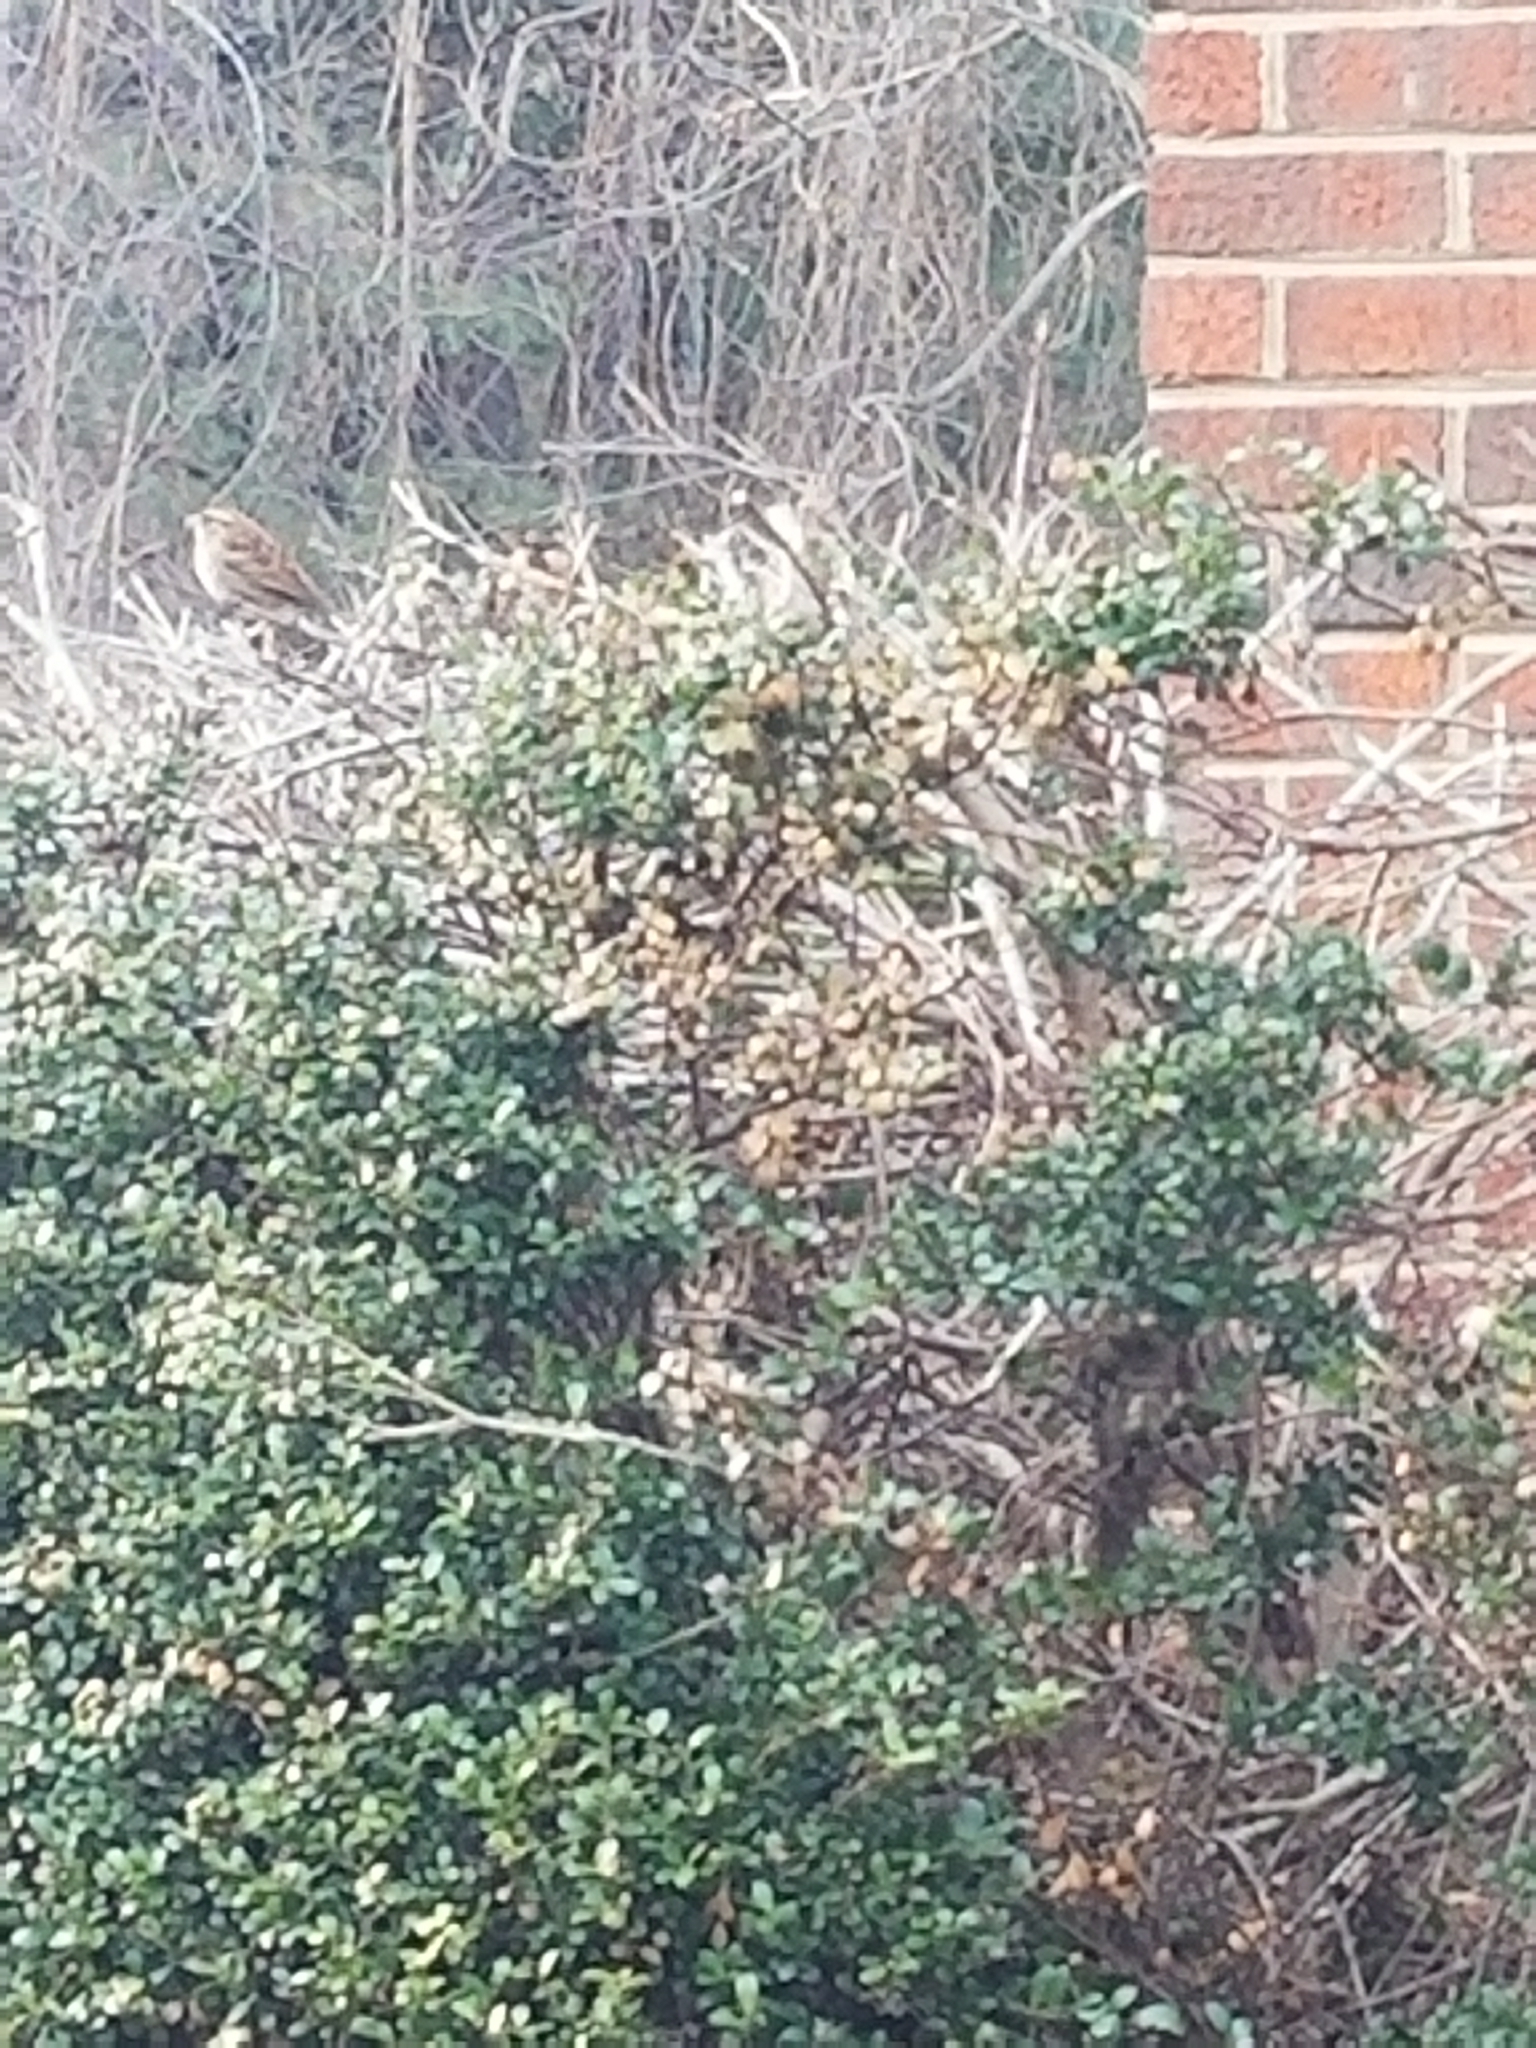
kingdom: Animalia
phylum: Chordata
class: Aves
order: Passeriformes
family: Passerellidae
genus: Zonotrichia
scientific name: Zonotrichia albicollis
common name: White-throated sparrow
